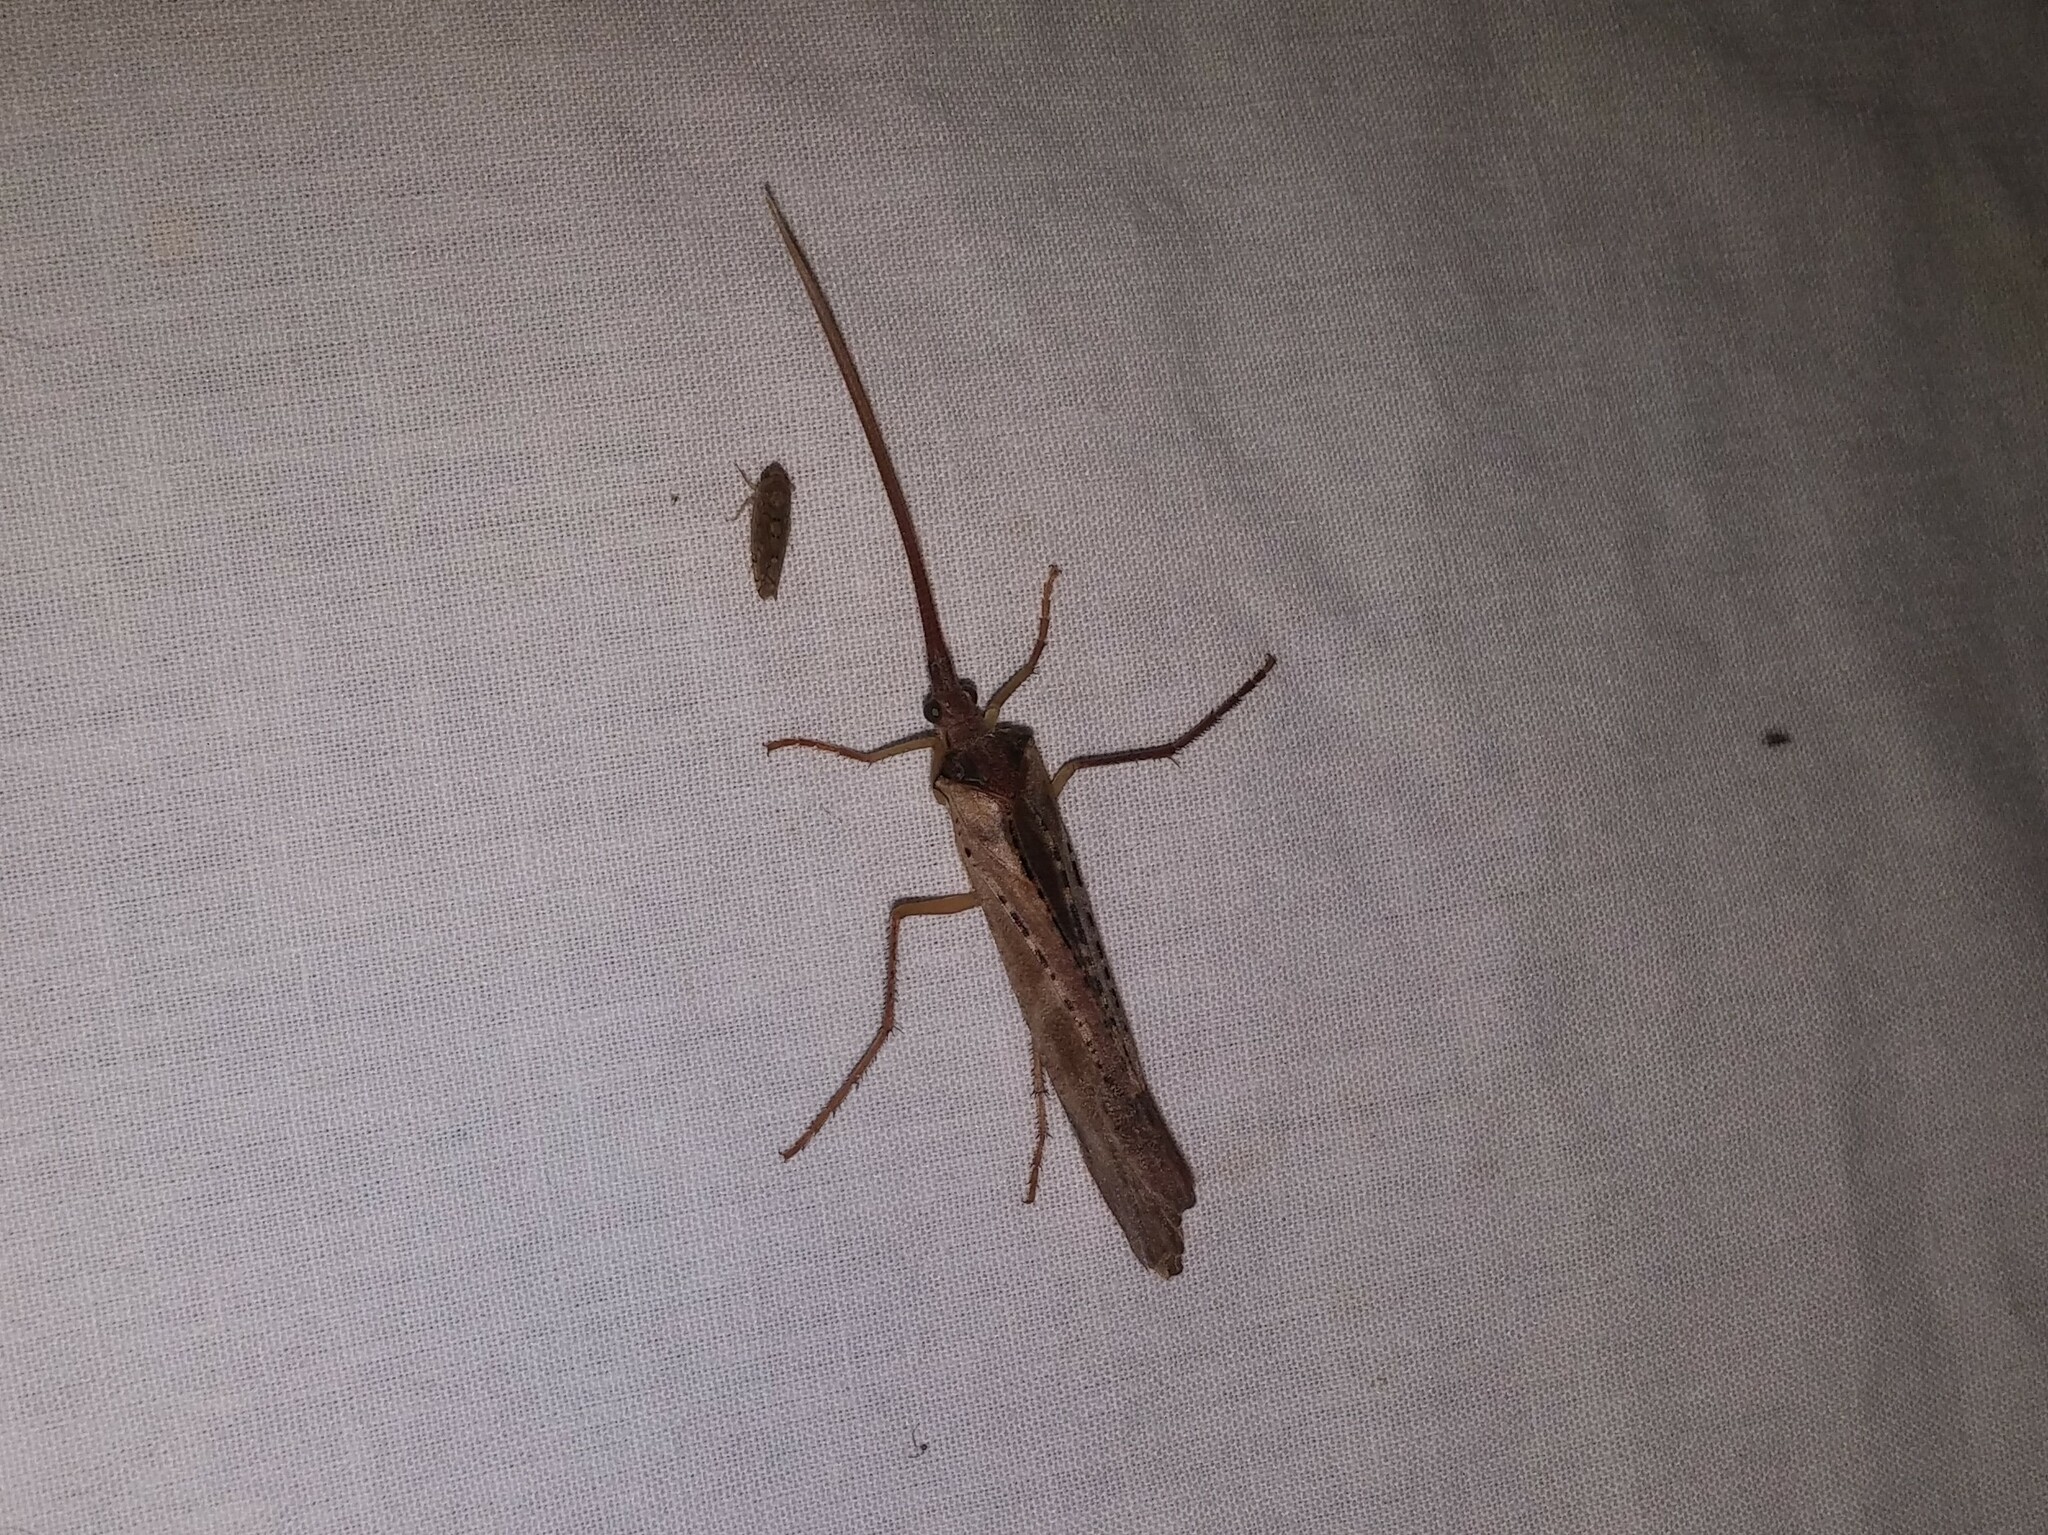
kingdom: Animalia
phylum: Arthropoda
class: Insecta
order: Trichoptera
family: Limnephilidae
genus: Nemotaulius
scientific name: Nemotaulius hostilis
